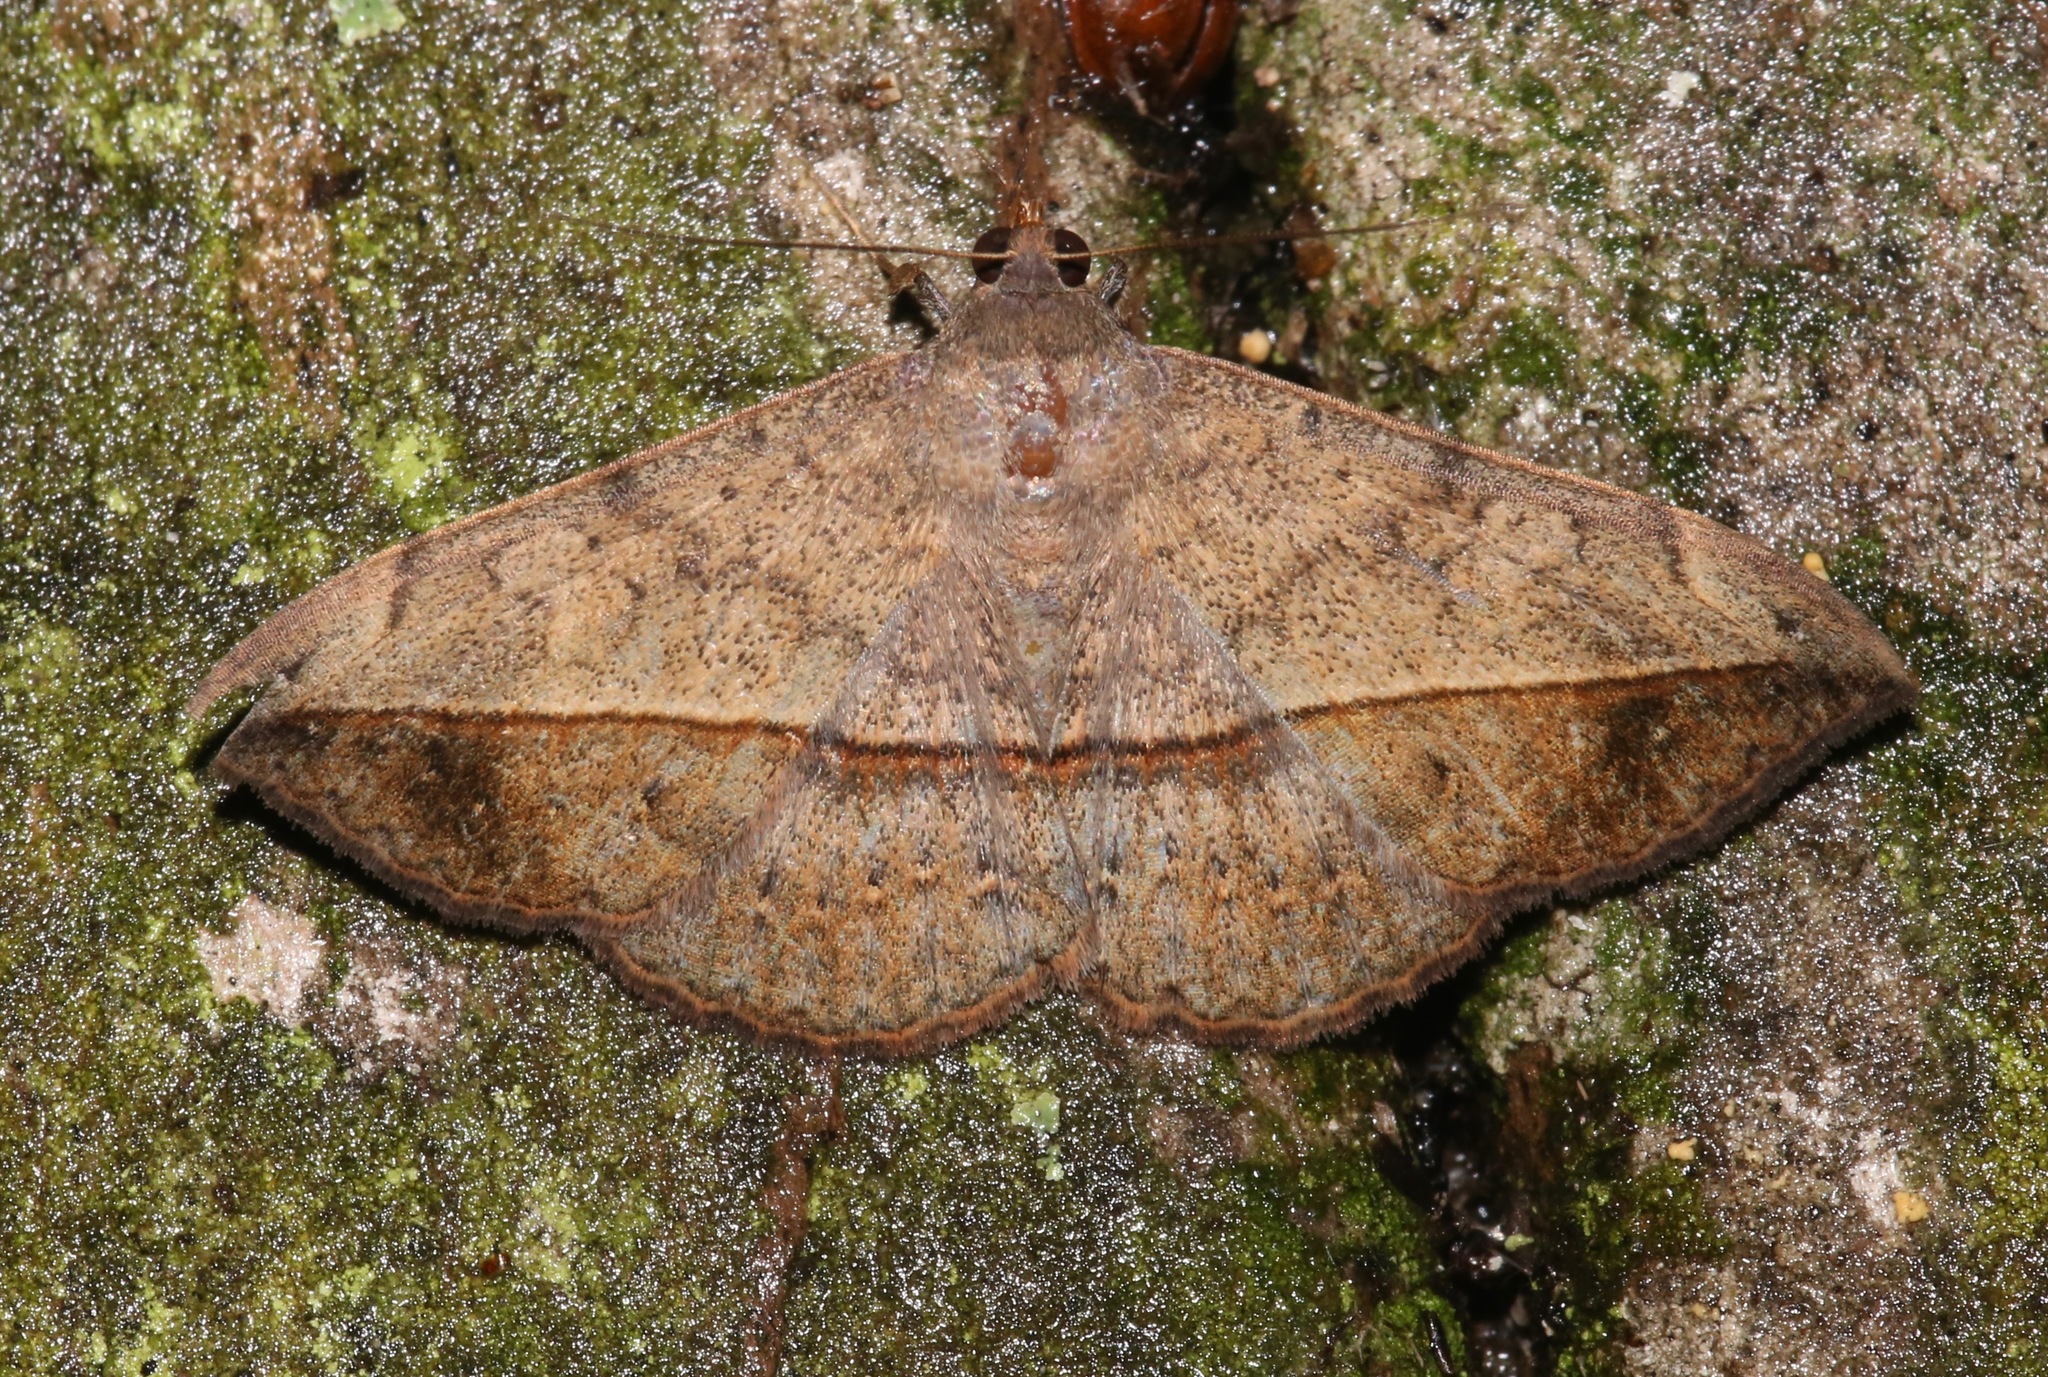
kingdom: Animalia
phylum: Arthropoda
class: Insecta
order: Lepidoptera
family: Erebidae
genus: Anticarsia
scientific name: Anticarsia gemmatalis
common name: Cutworm moth
